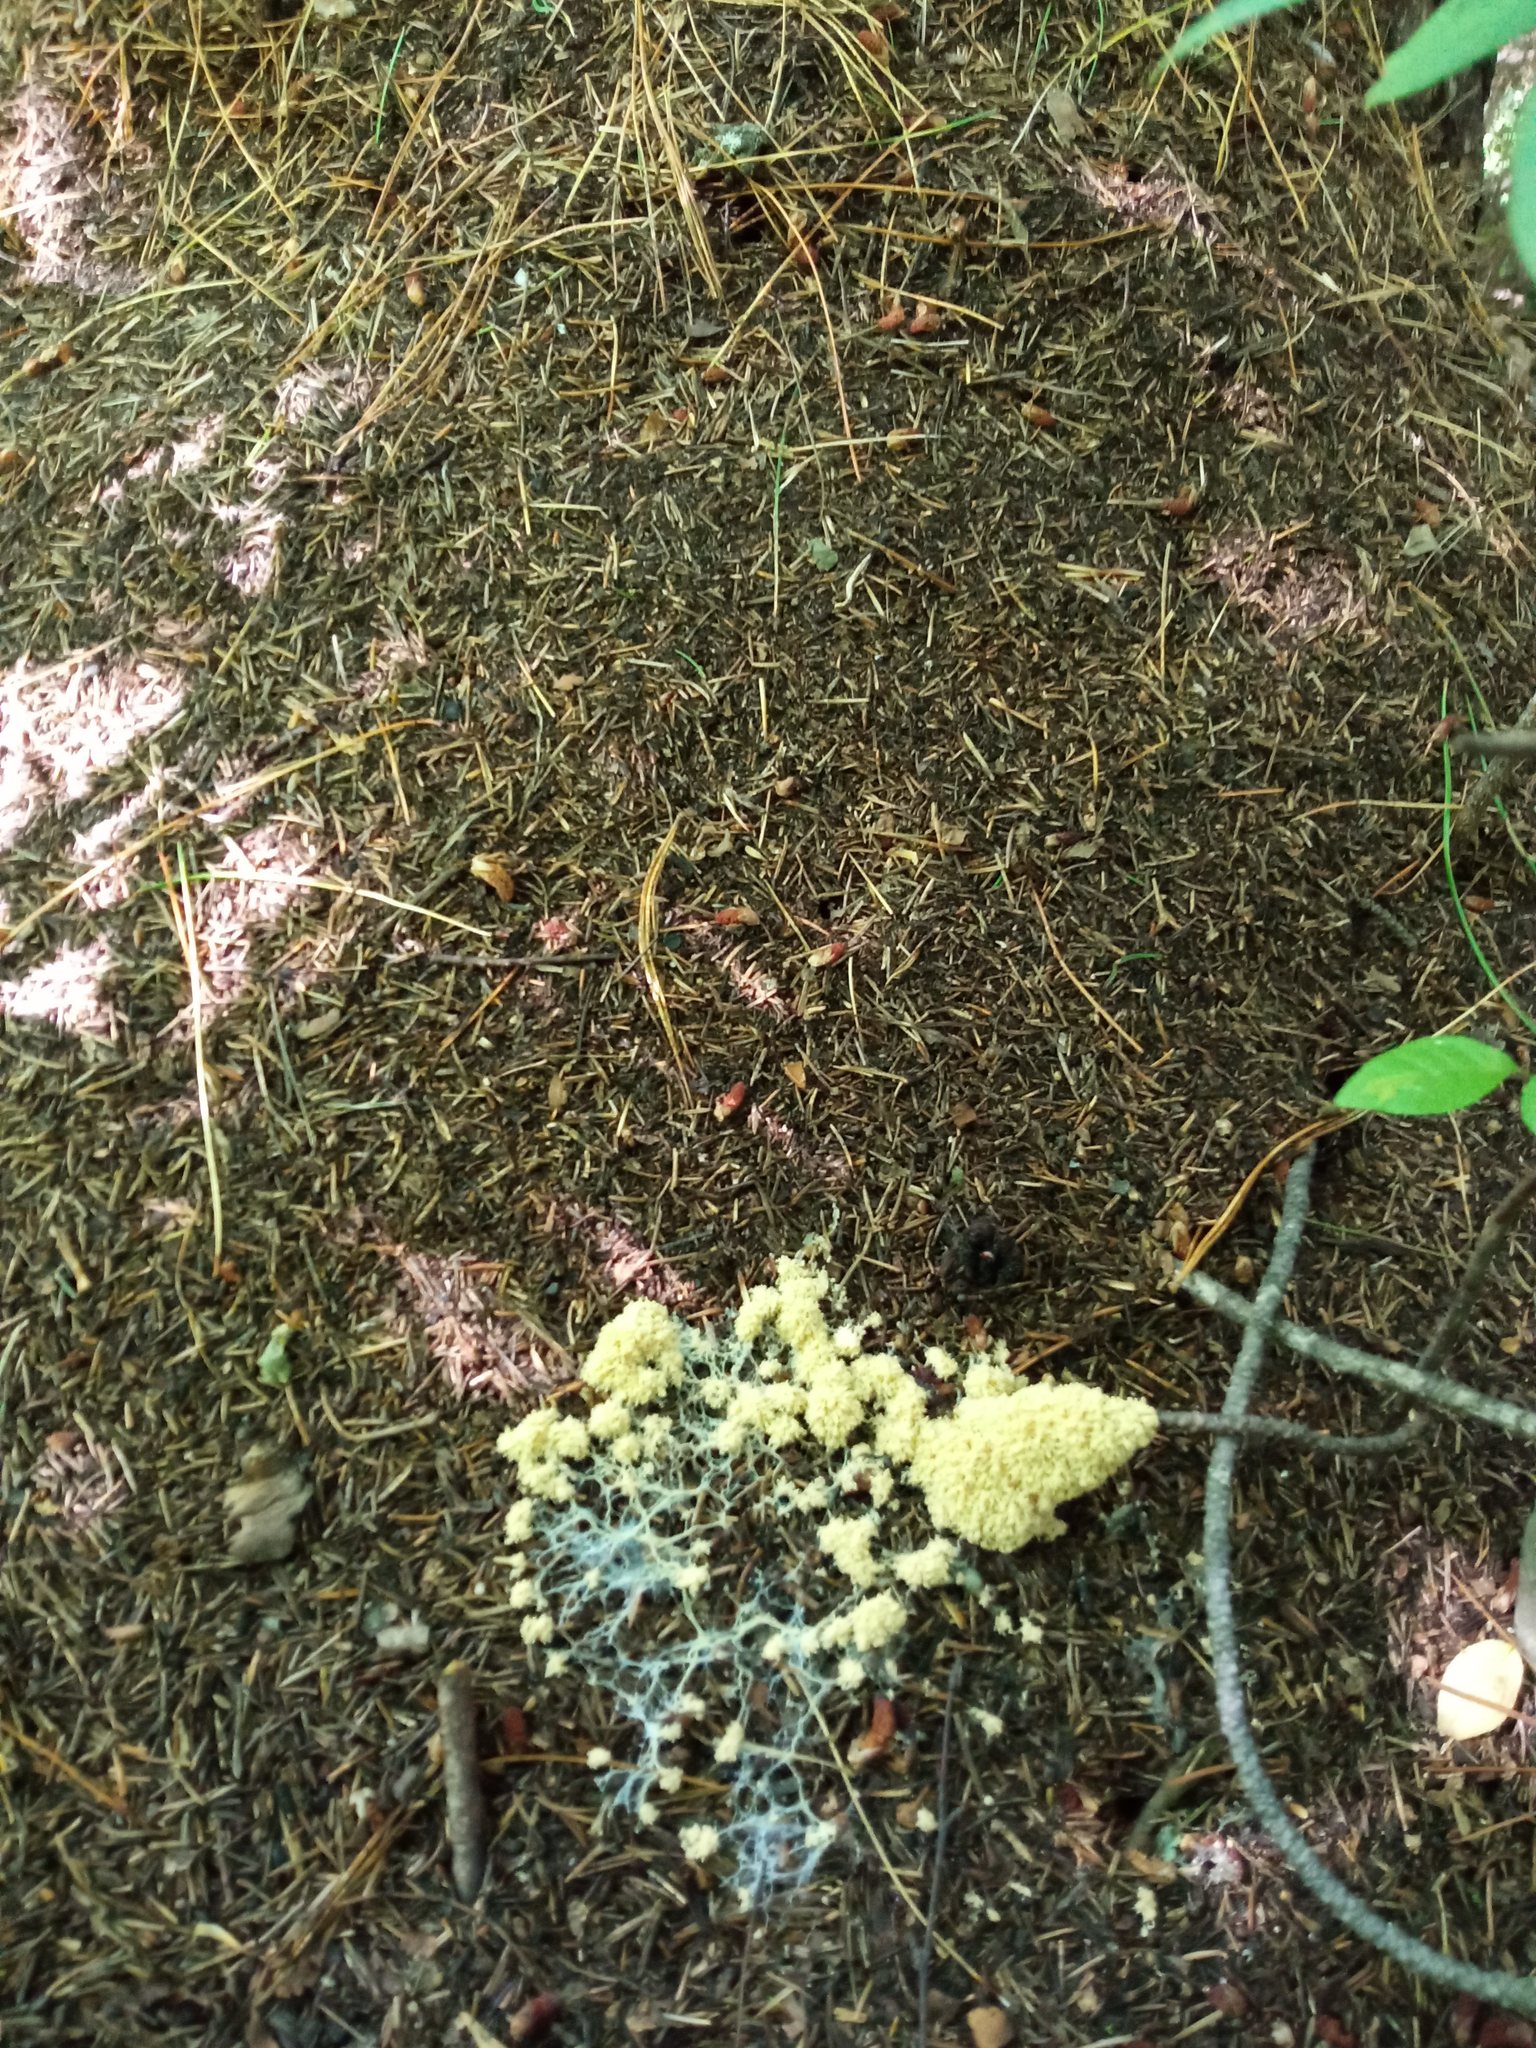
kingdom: Protozoa
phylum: Mycetozoa
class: Myxomycetes
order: Physarales
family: Physaraceae
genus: Didymium
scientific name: Didymium
